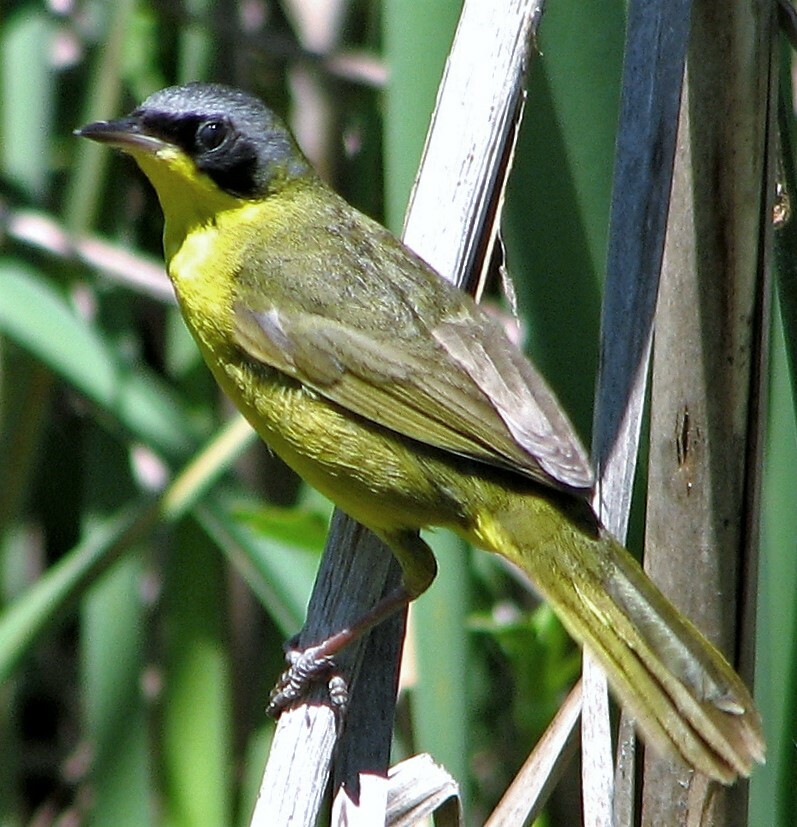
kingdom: Animalia
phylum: Chordata
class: Aves
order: Passeriformes
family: Parulidae
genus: Geothlypis
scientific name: Geothlypis velata
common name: Southern yellowthroat
